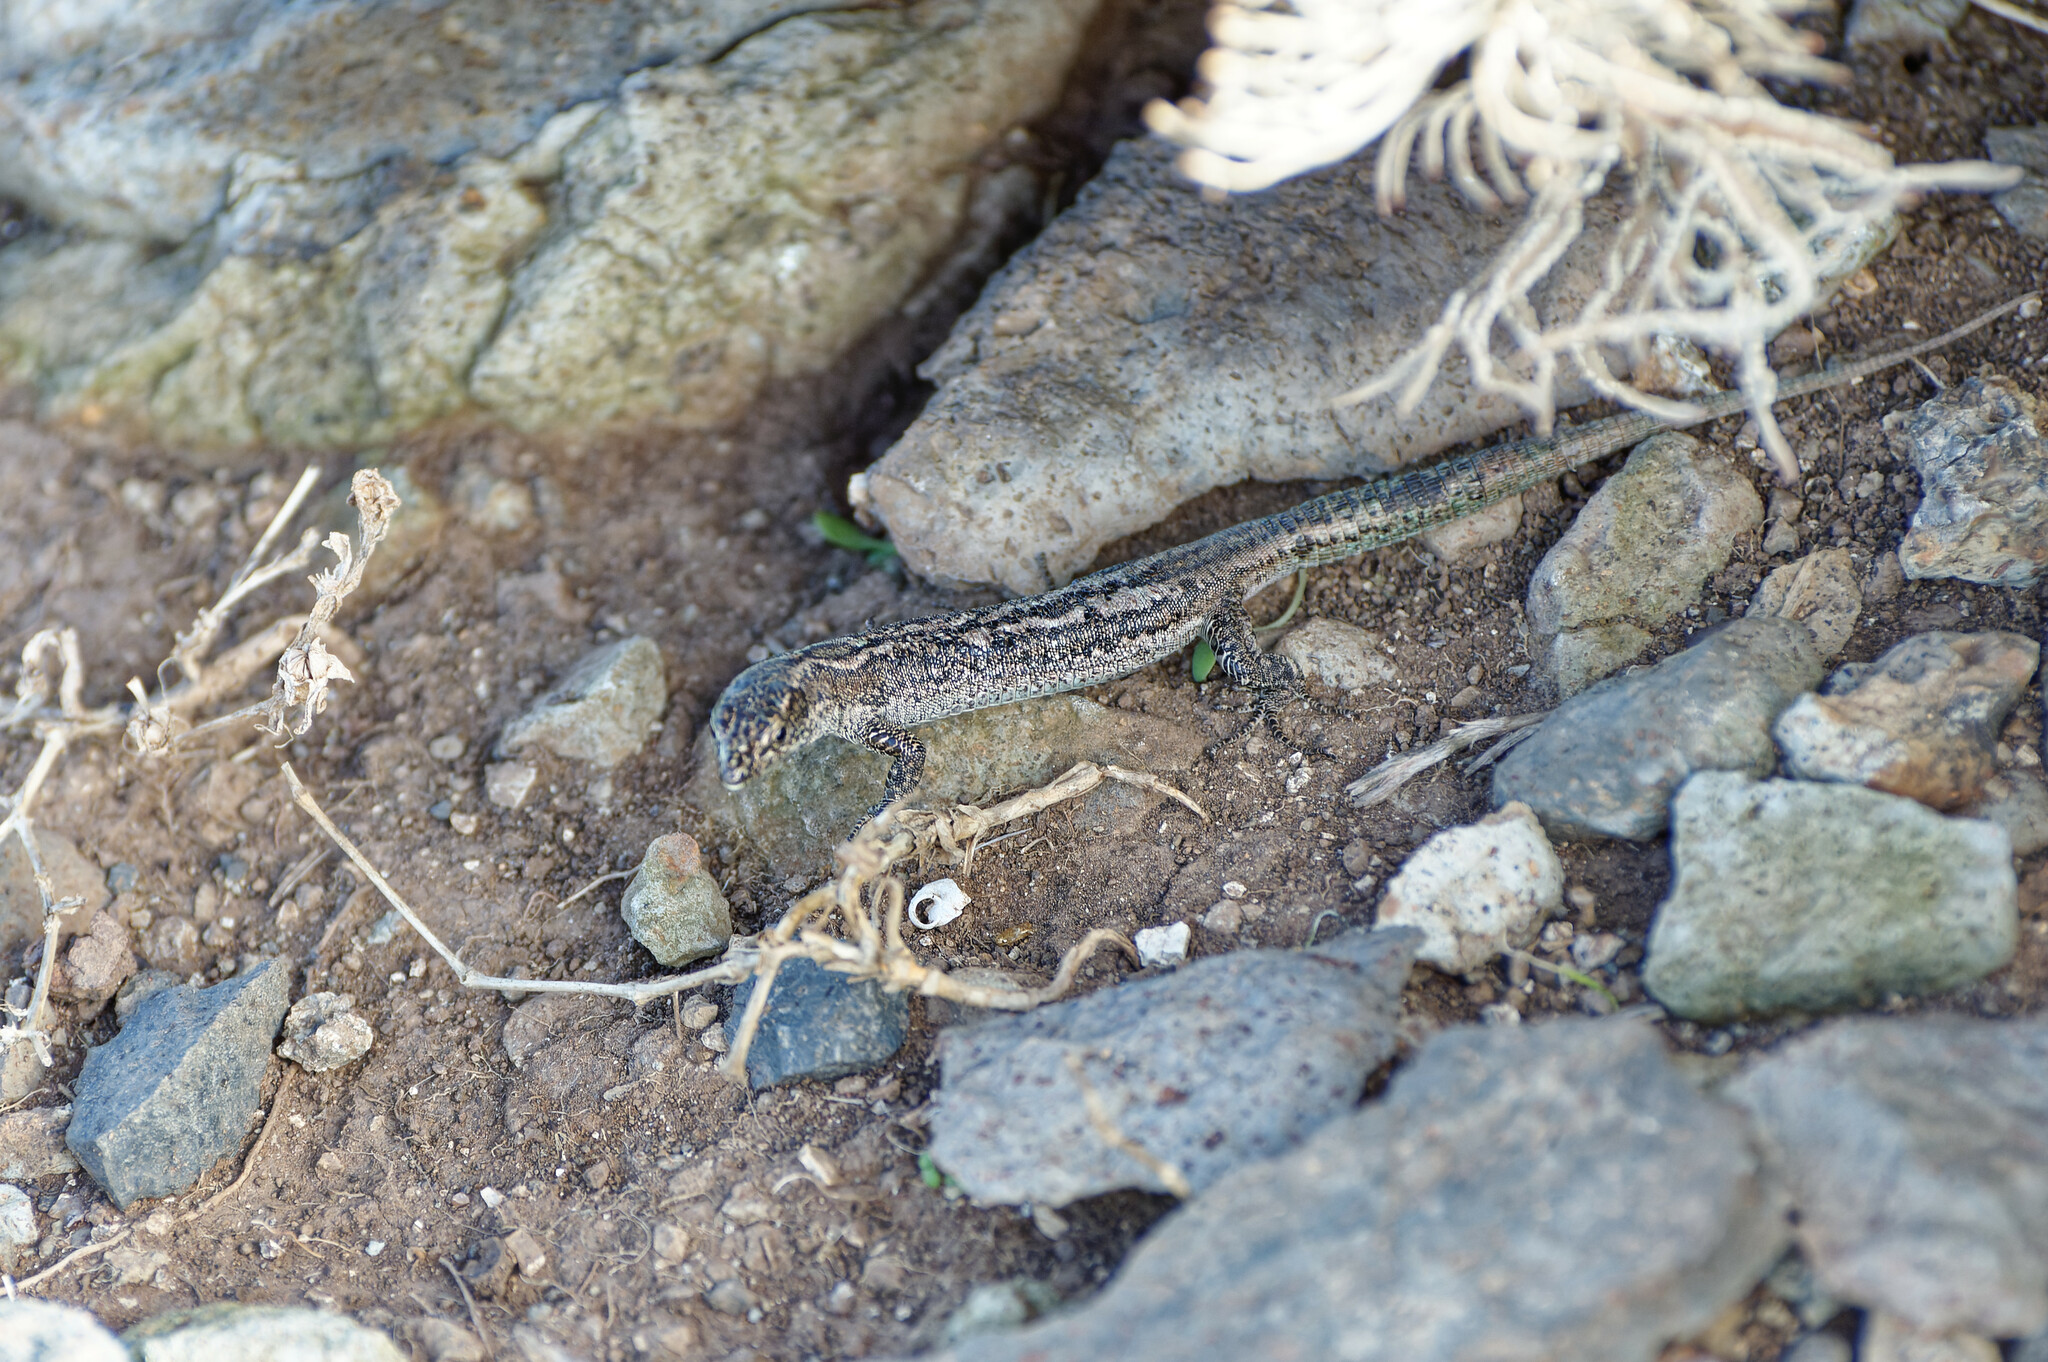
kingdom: Animalia
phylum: Chordata
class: Squamata
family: Lacertidae
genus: Teira
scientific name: Teira dugesii
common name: Madeira lizard
